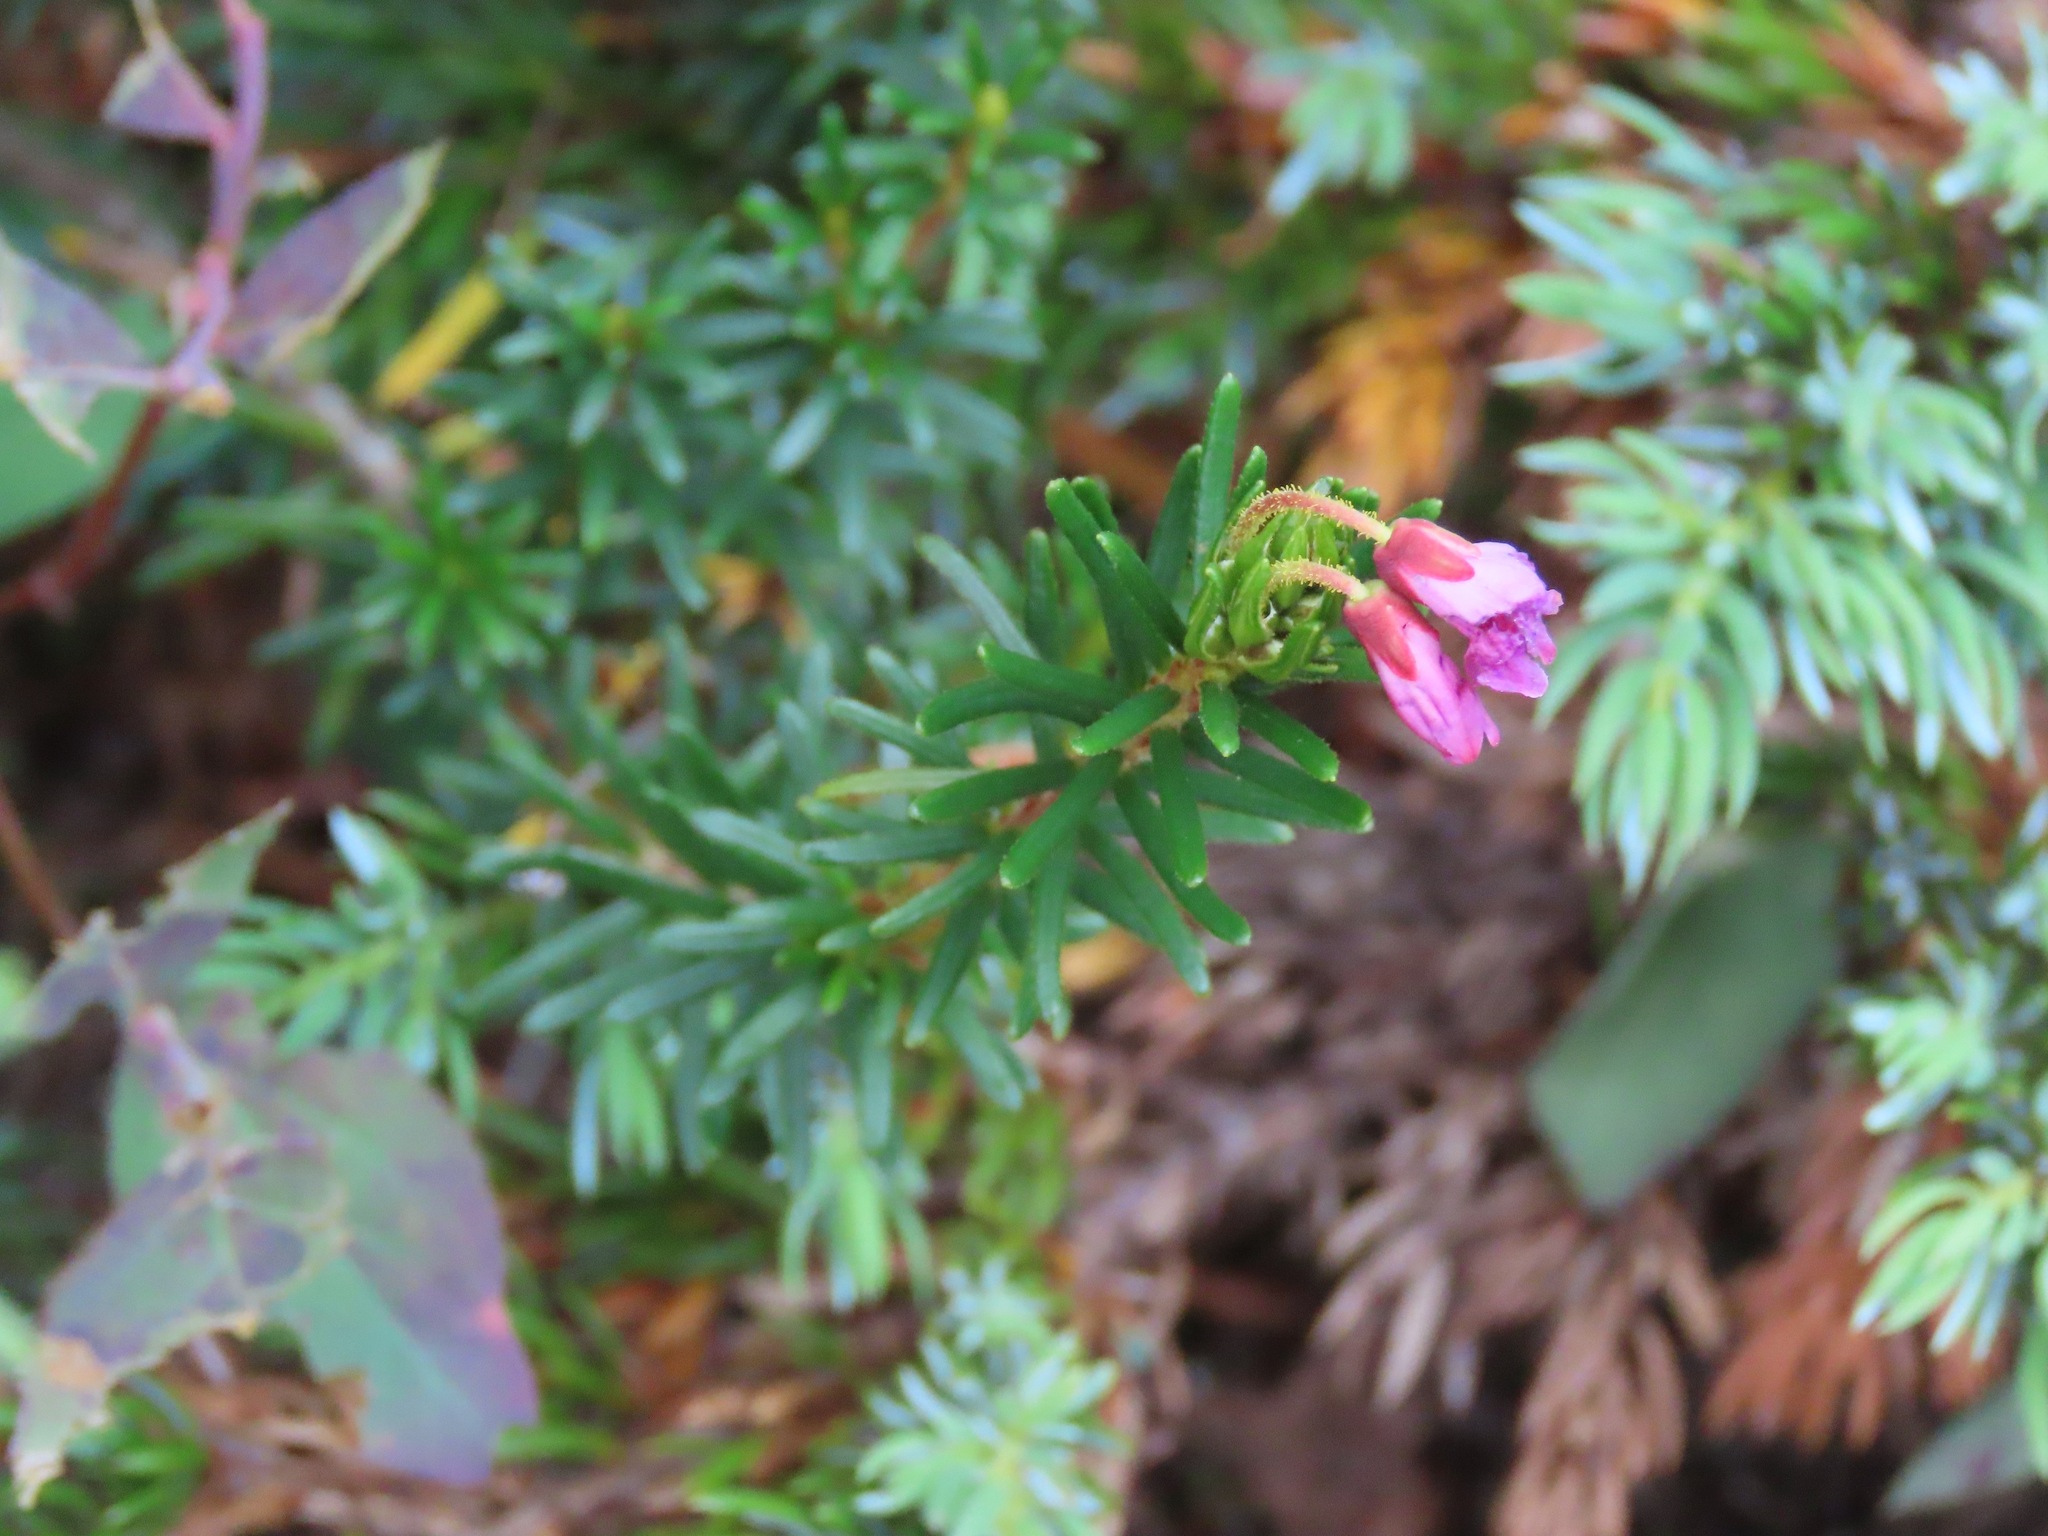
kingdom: Plantae
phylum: Tracheophyta
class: Magnoliopsida
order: Ericales
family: Ericaceae
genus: Phyllodoce
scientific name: Phyllodoce empetriformis
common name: Pink mountain heather
